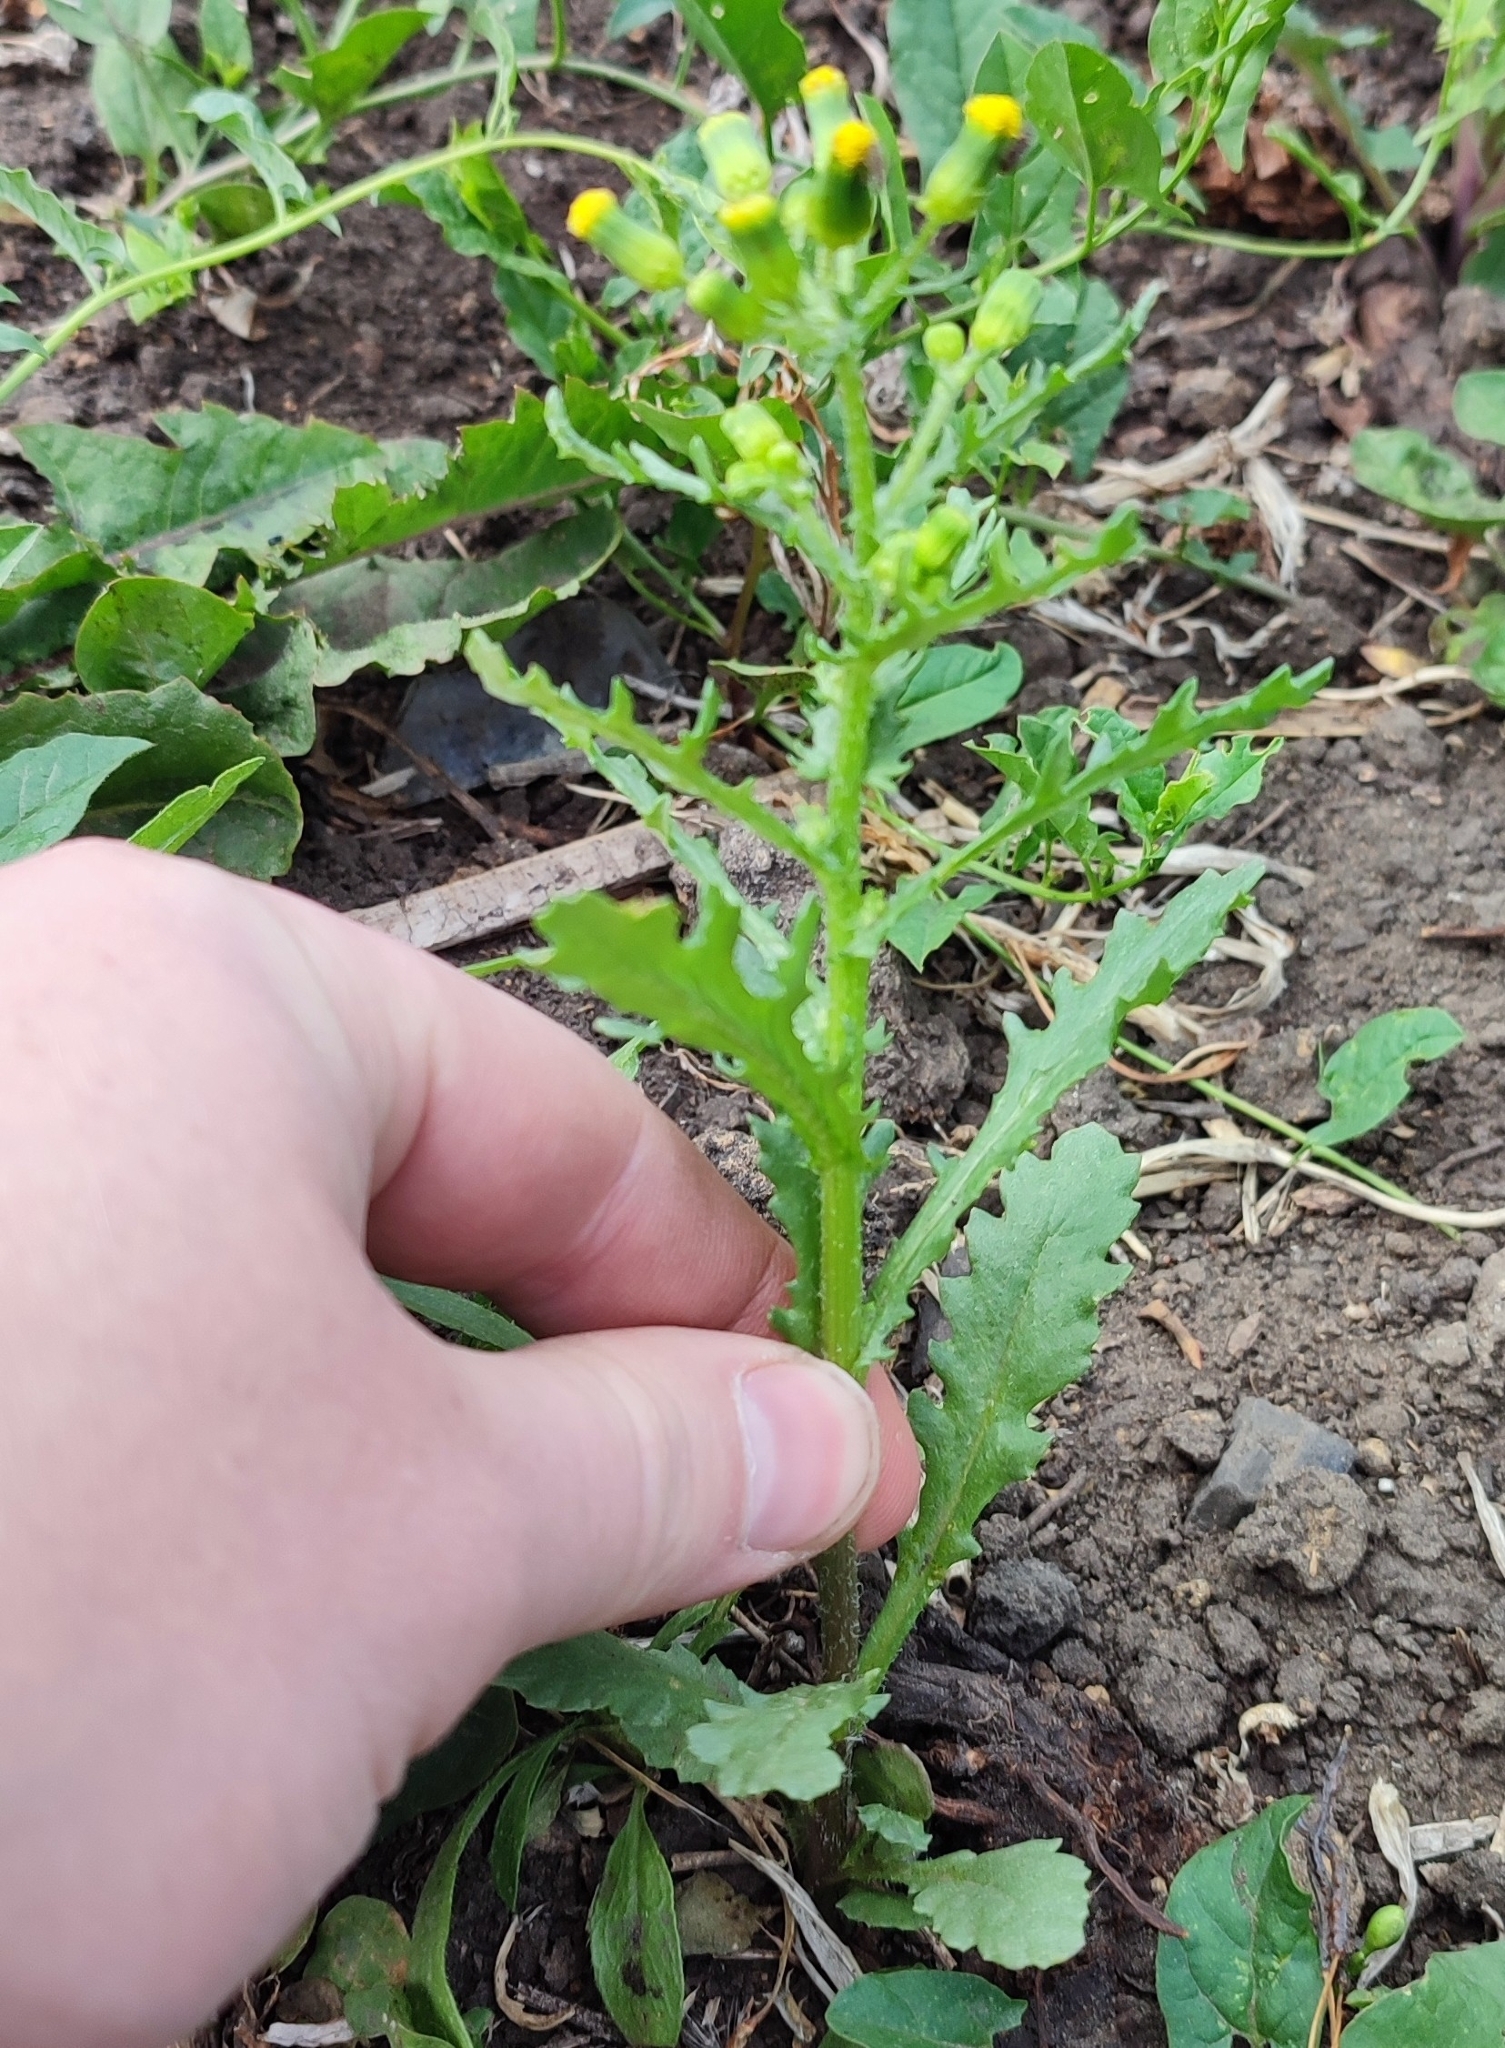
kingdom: Plantae
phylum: Tracheophyta
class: Magnoliopsida
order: Asterales
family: Asteraceae
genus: Senecio
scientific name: Senecio vulgaris
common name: Old-man-in-the-spring
